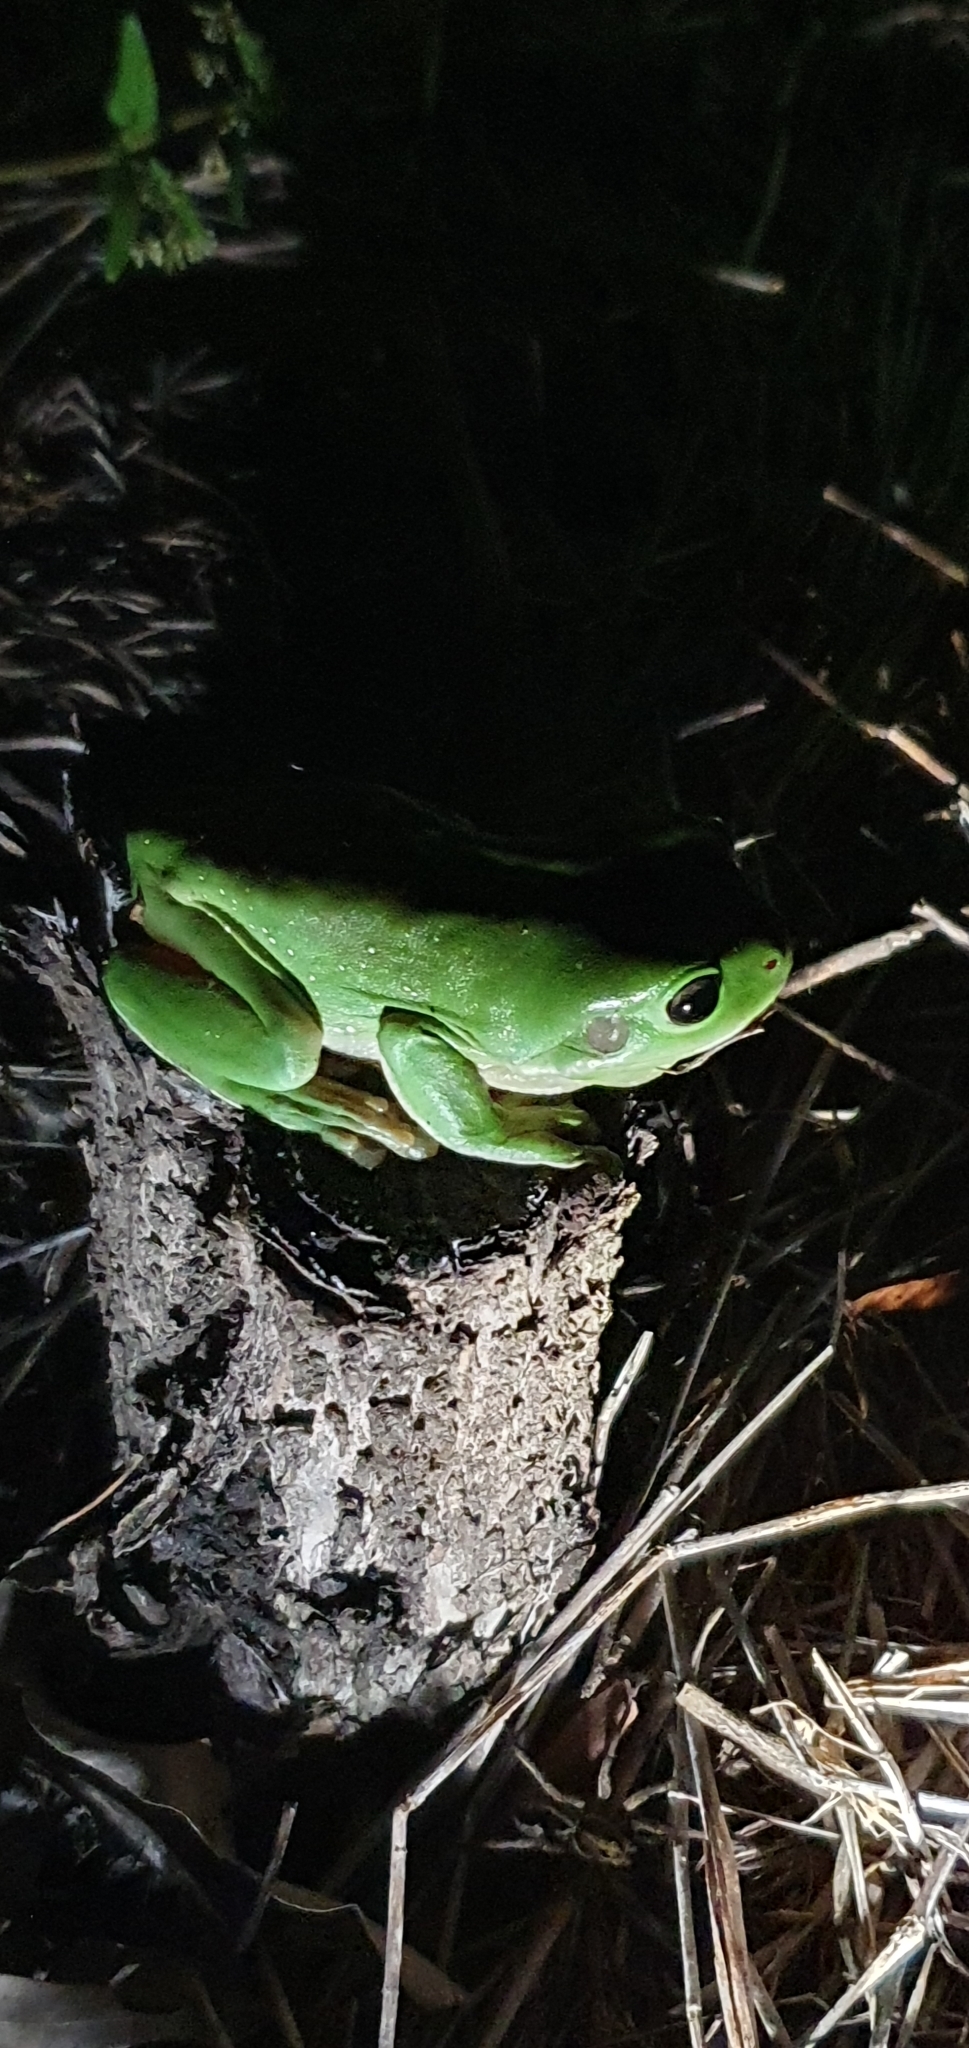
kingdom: Animalia
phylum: Chordata
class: Amphibia
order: Anura
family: Pelodryadidae
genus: Ranoidea
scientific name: Ranoidea caerulea
